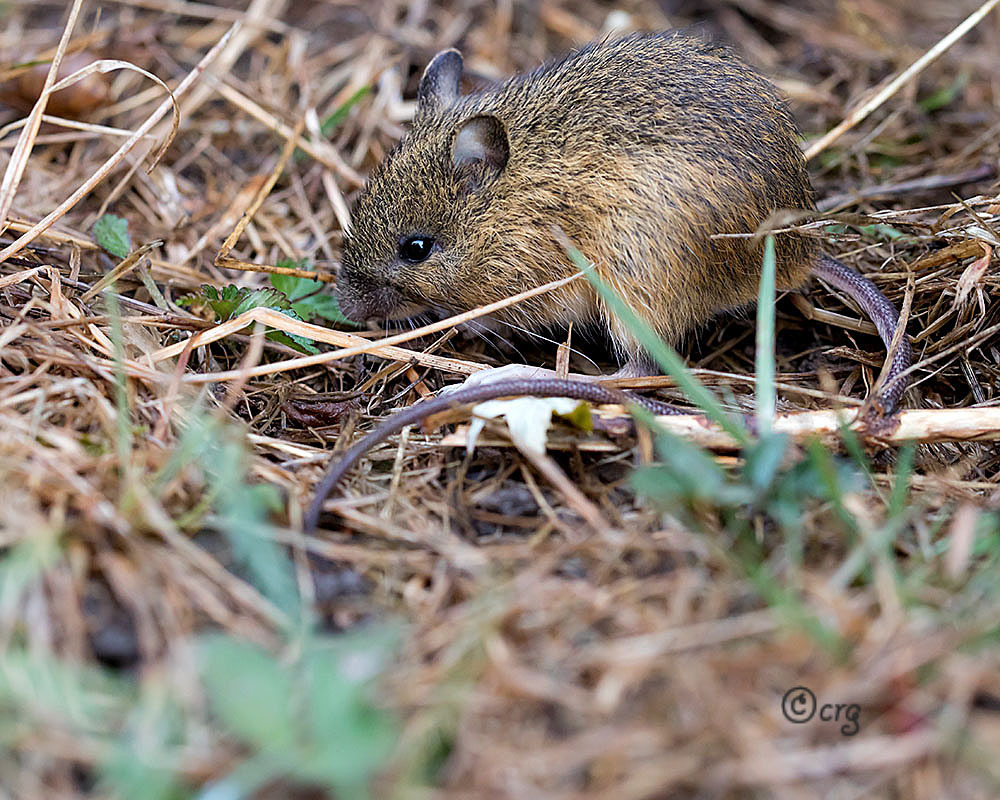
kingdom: Animalia
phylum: Chordata
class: Mammalia
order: Rodentia
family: Dipodidae
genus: Zapus
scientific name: Zapus hudsonius
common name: Meadow jumping mouse
